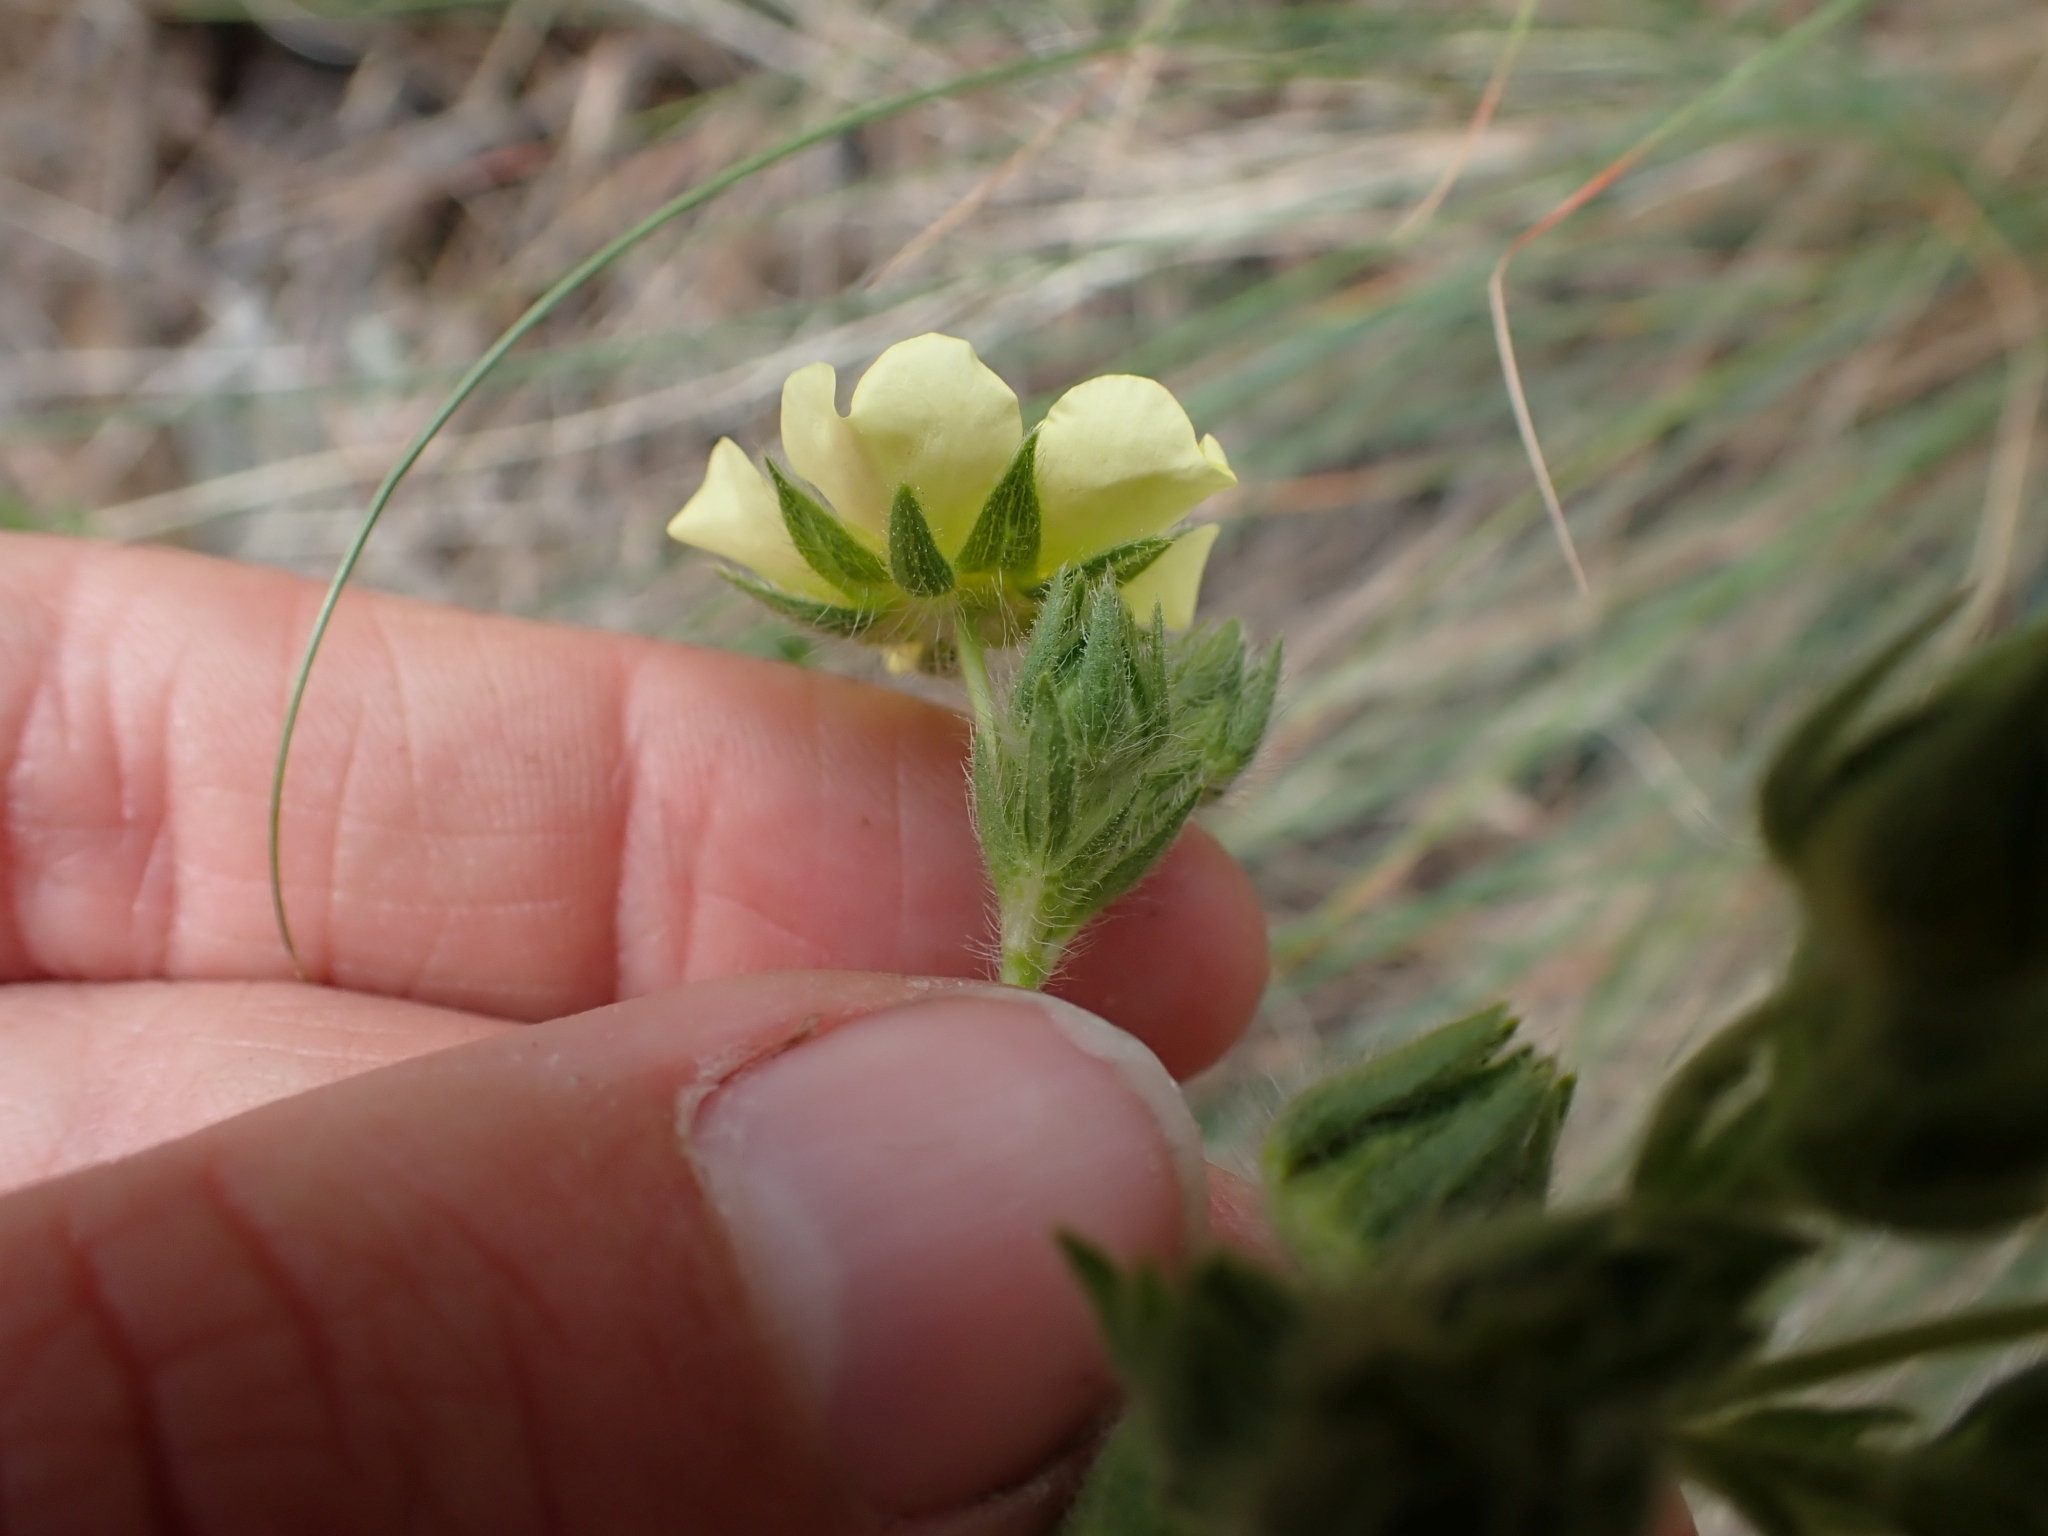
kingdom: Plantae
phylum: Tracheophyta
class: Magnoliopsida
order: Rosales
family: Rosaceae
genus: Potentilla
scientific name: Potentilla recta
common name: Sulphur cinquefoil
